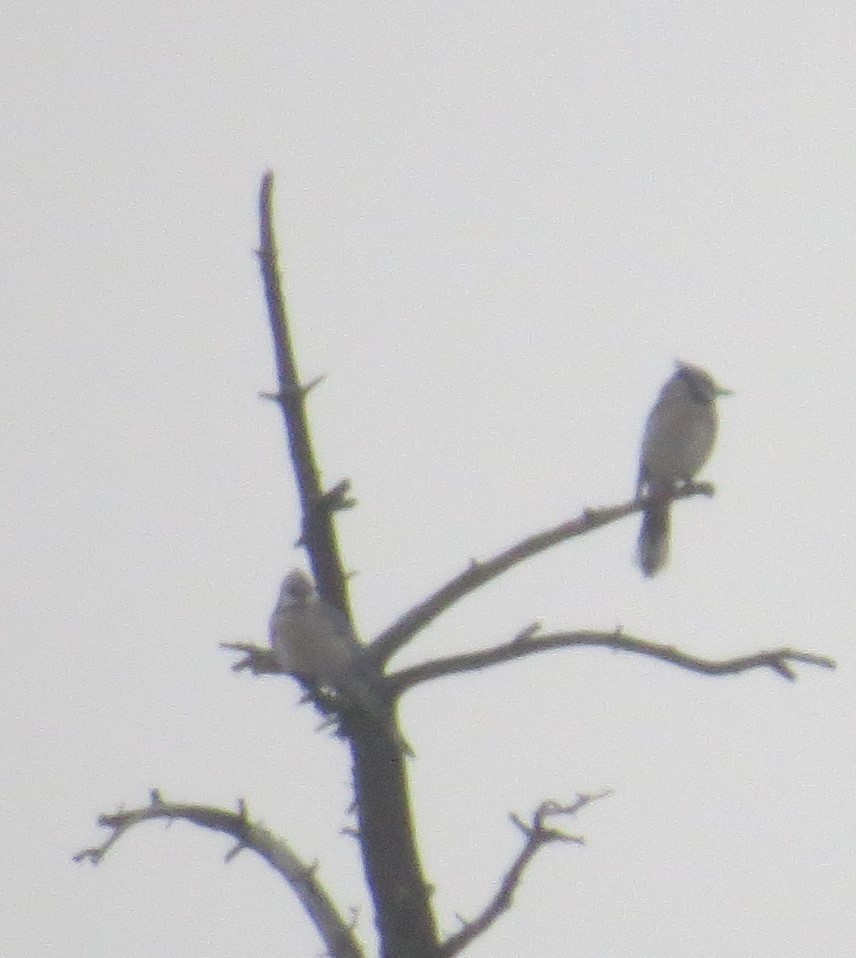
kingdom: Animalia
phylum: Chordata
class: Aves
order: Passeriformes
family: Corvidae
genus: Cyanocitta
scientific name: Cyanocitta cristata
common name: Blue jay
